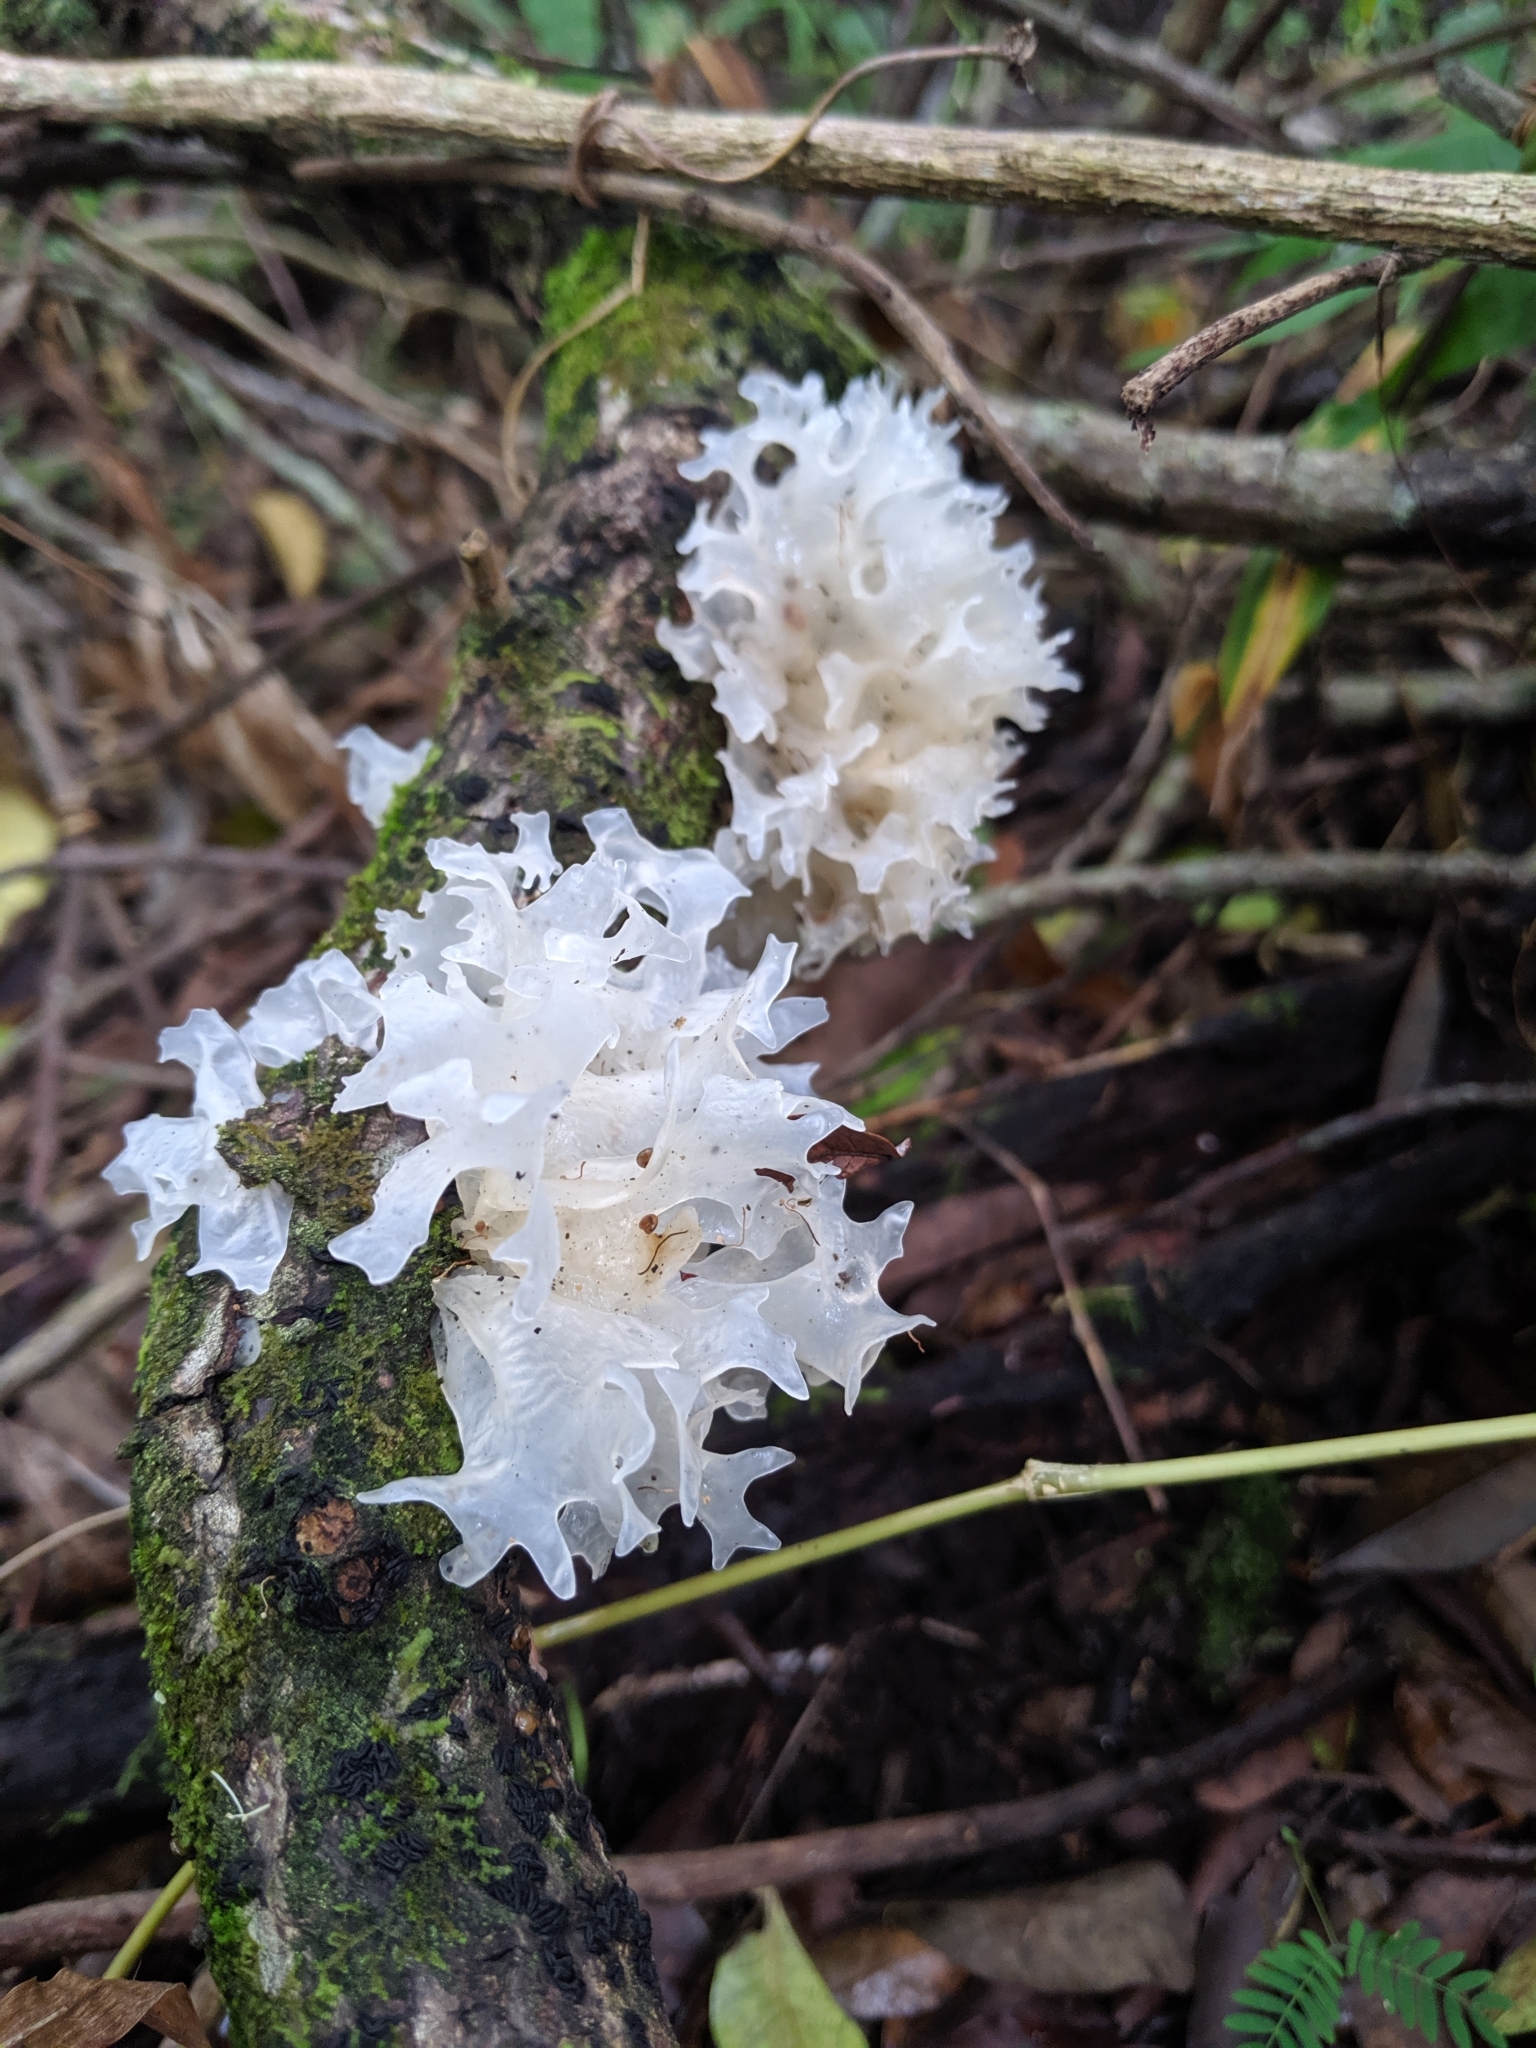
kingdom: Fungi
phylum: Basidiomycota
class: Tremellomycetes
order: Tremellales
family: Tremellaceae
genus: Tremella
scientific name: Tremella fuciformis
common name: Snow fungus
